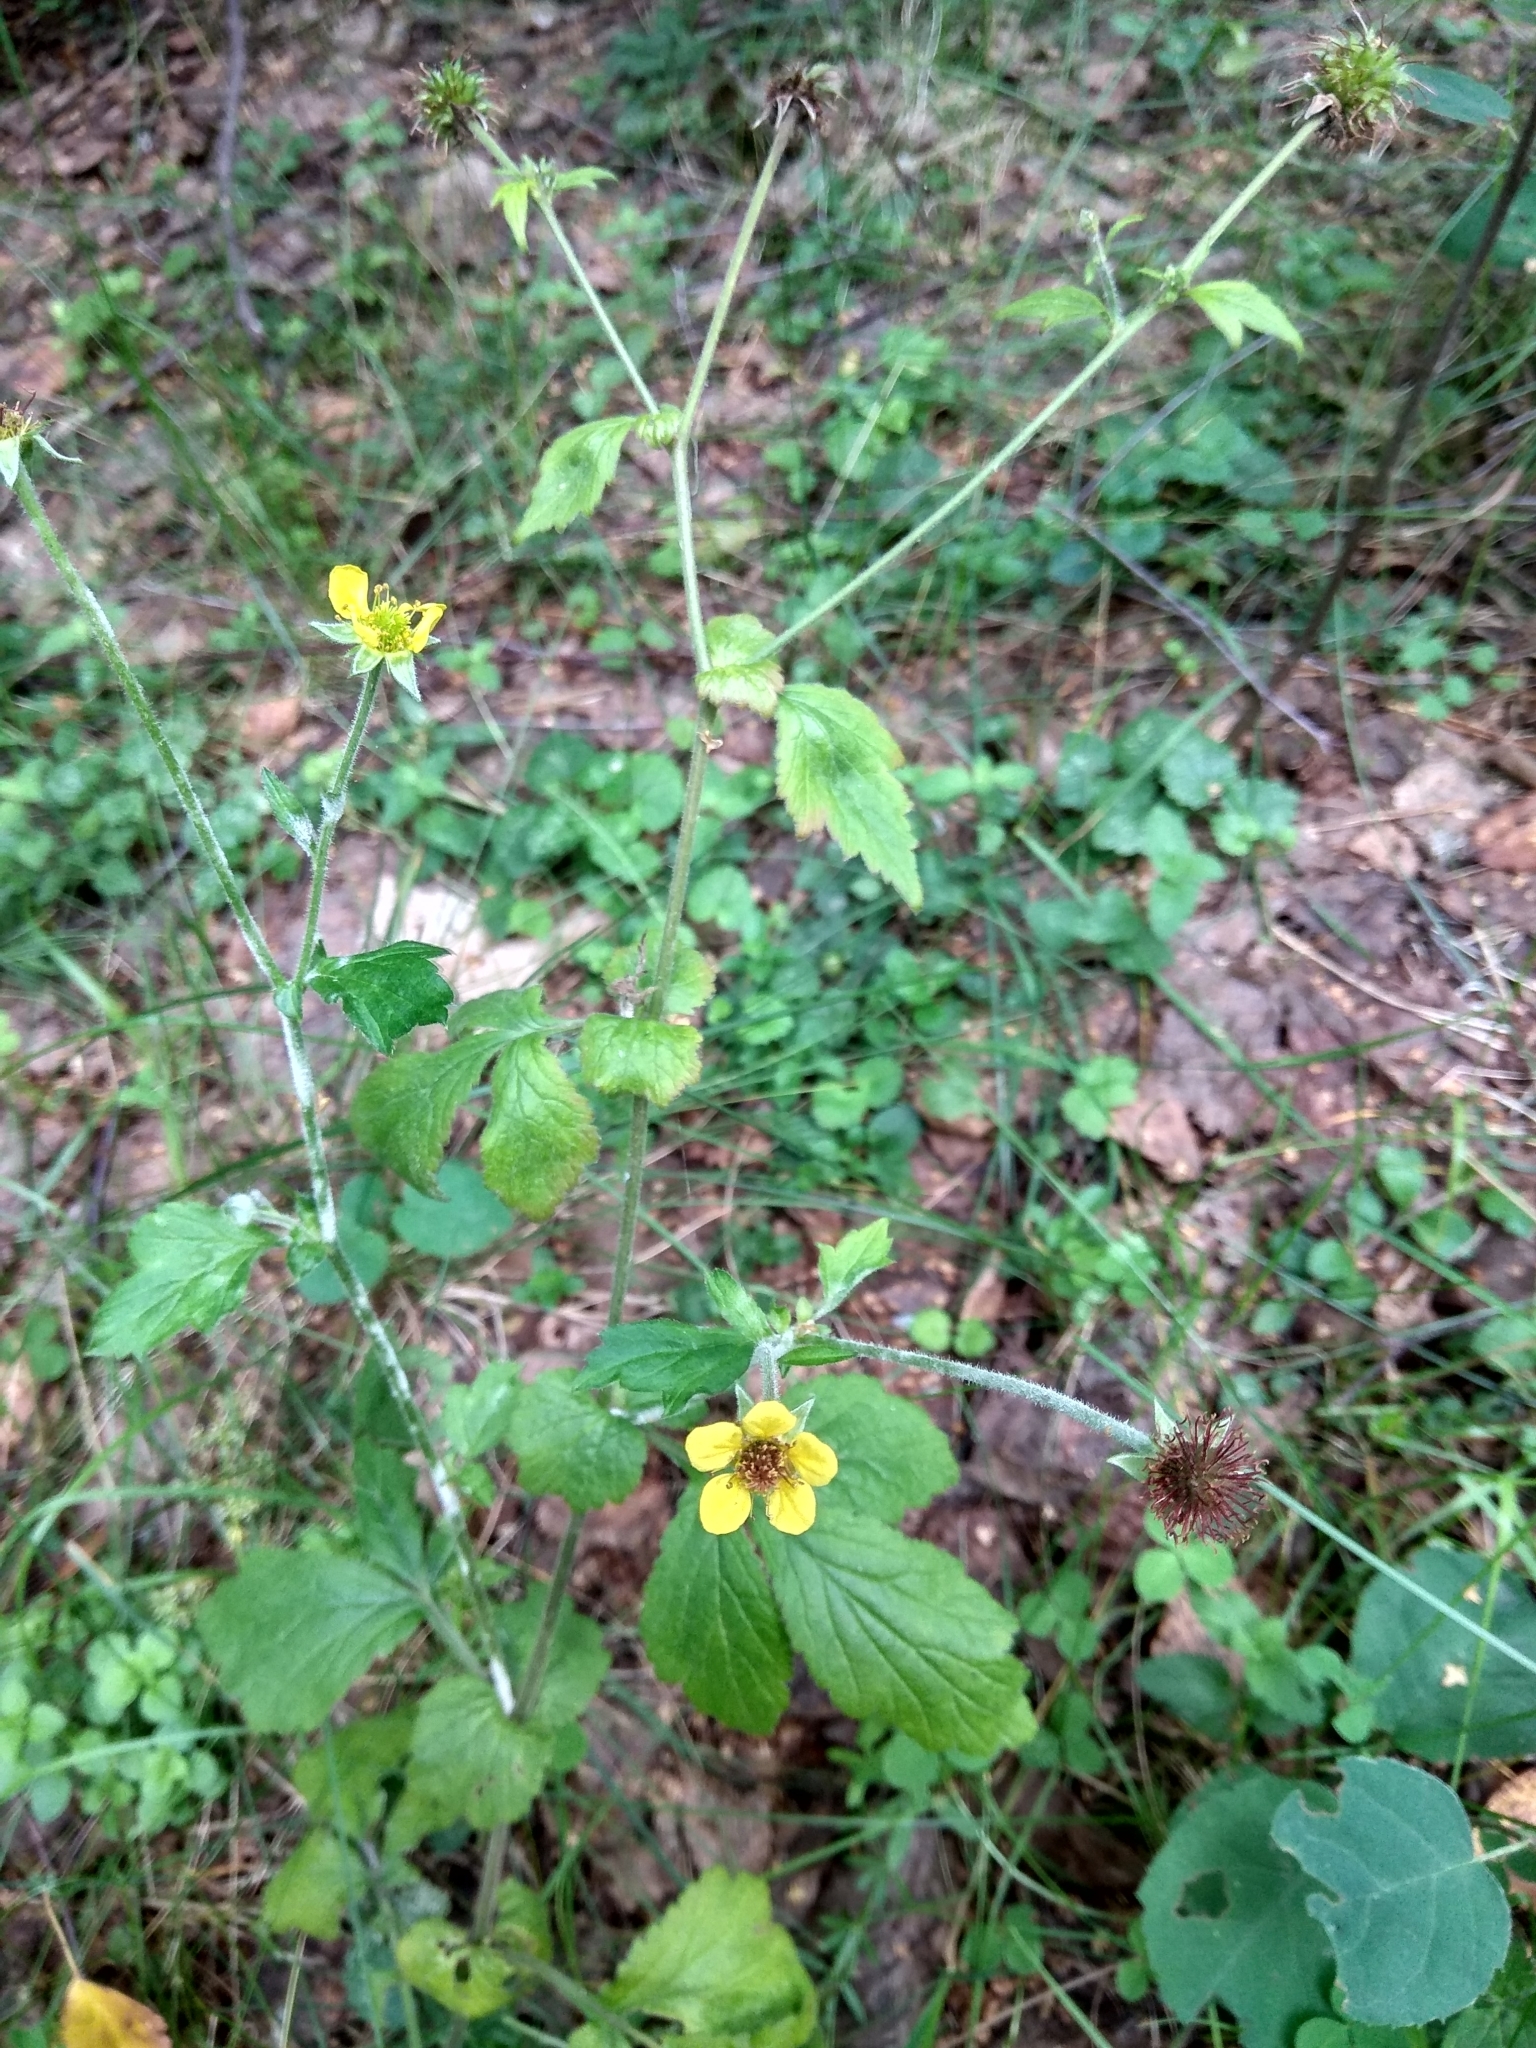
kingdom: Plantae
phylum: Tracheophyta
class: Magnoliopsida
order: Rosales
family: Rosaceae
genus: Geum
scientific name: Geum urbanum
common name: Wood avens
